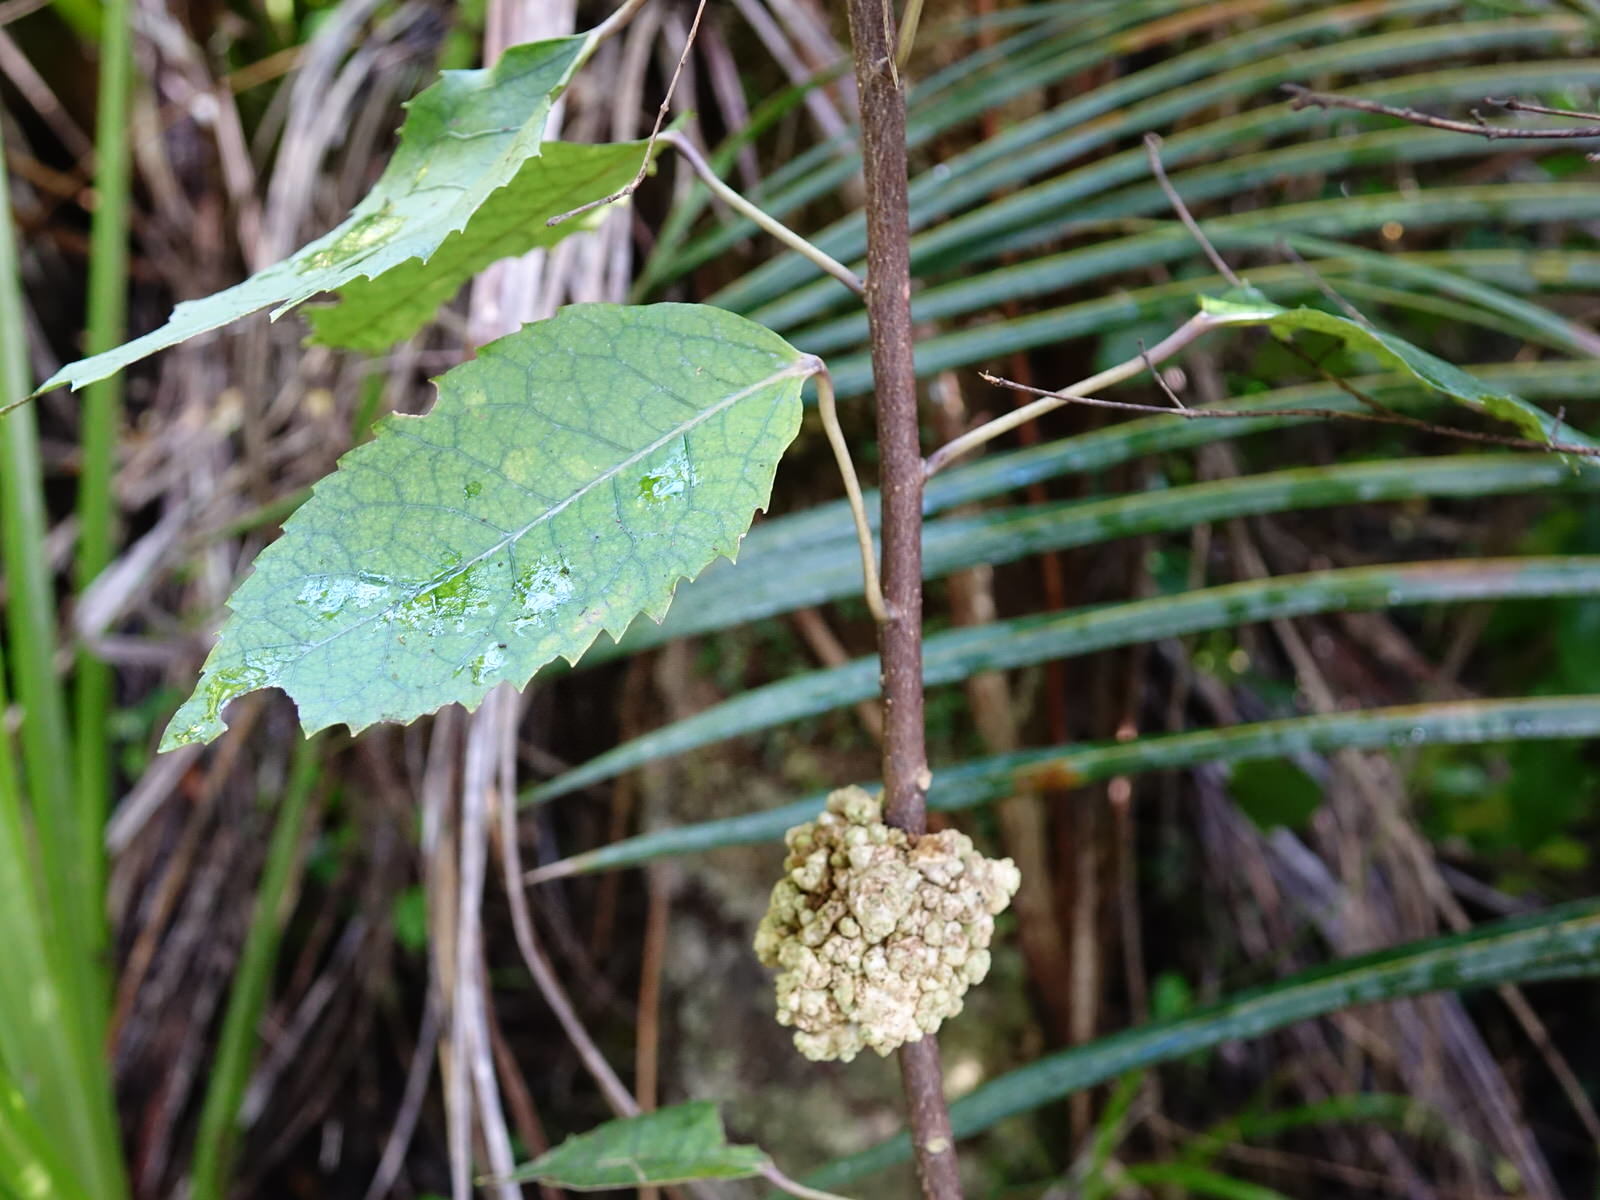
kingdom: Animalia
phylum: Arthropoda
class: Arachnida
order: Trombidiformes
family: Eriophyidae
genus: Eriophyes
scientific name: Eriophyes hoheriae
